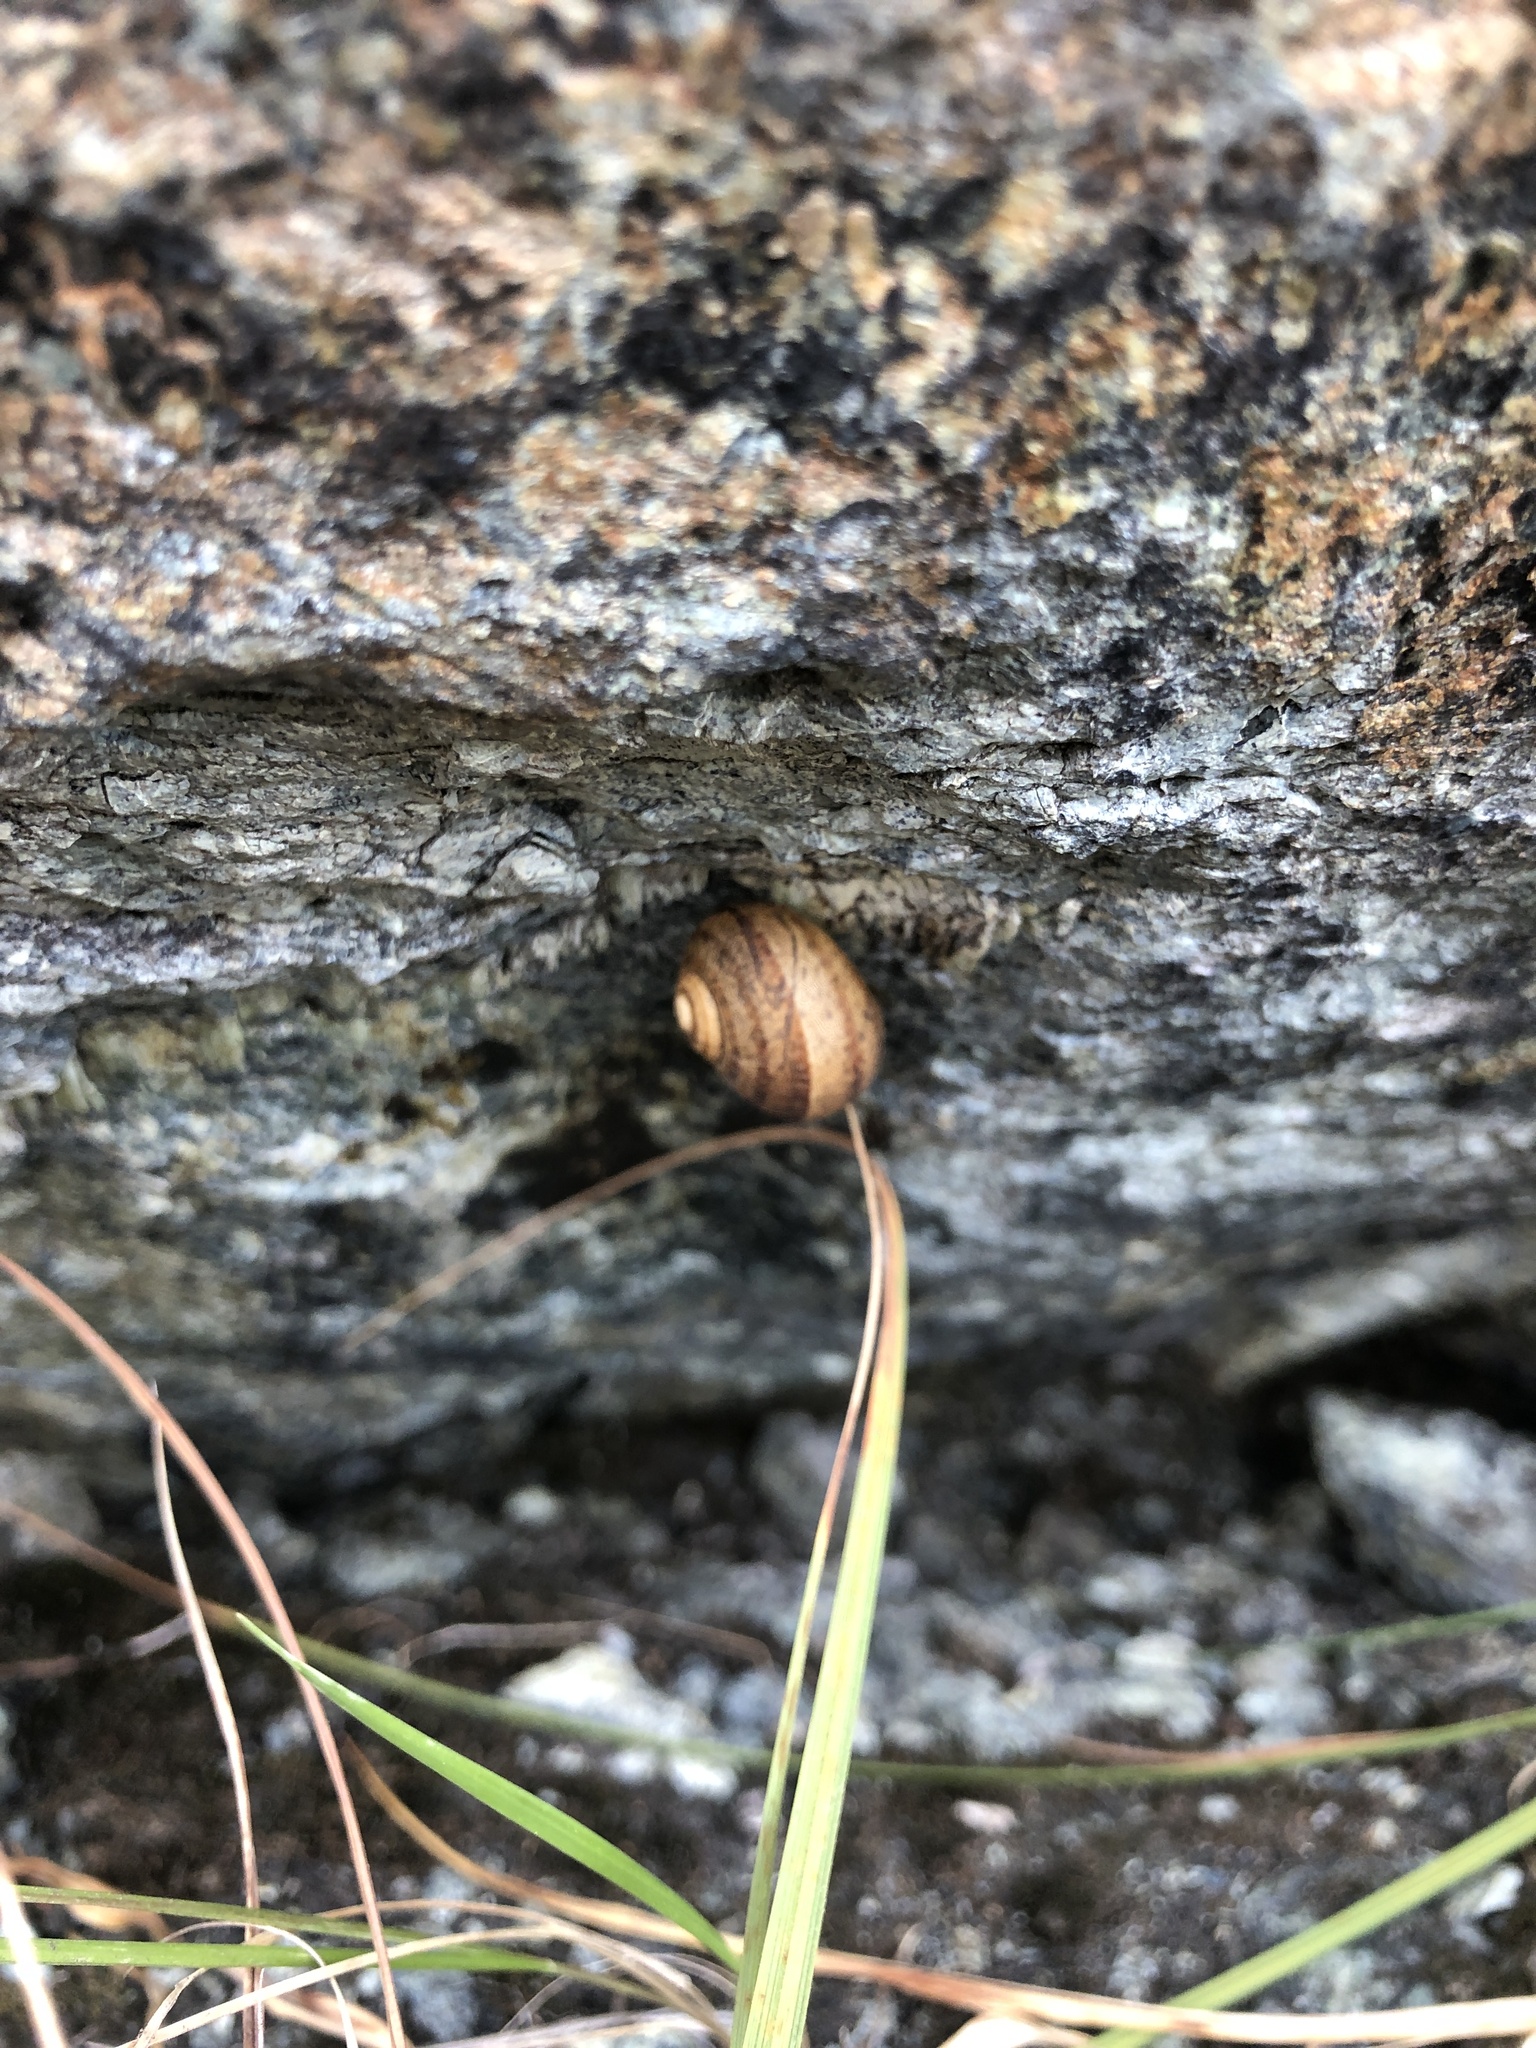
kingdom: Animalia
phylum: Mollusca
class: Gastropoda
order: Stylommatophora
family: Helicidae
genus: Cornu
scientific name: Cornu aspersum
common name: Brown garden snail
